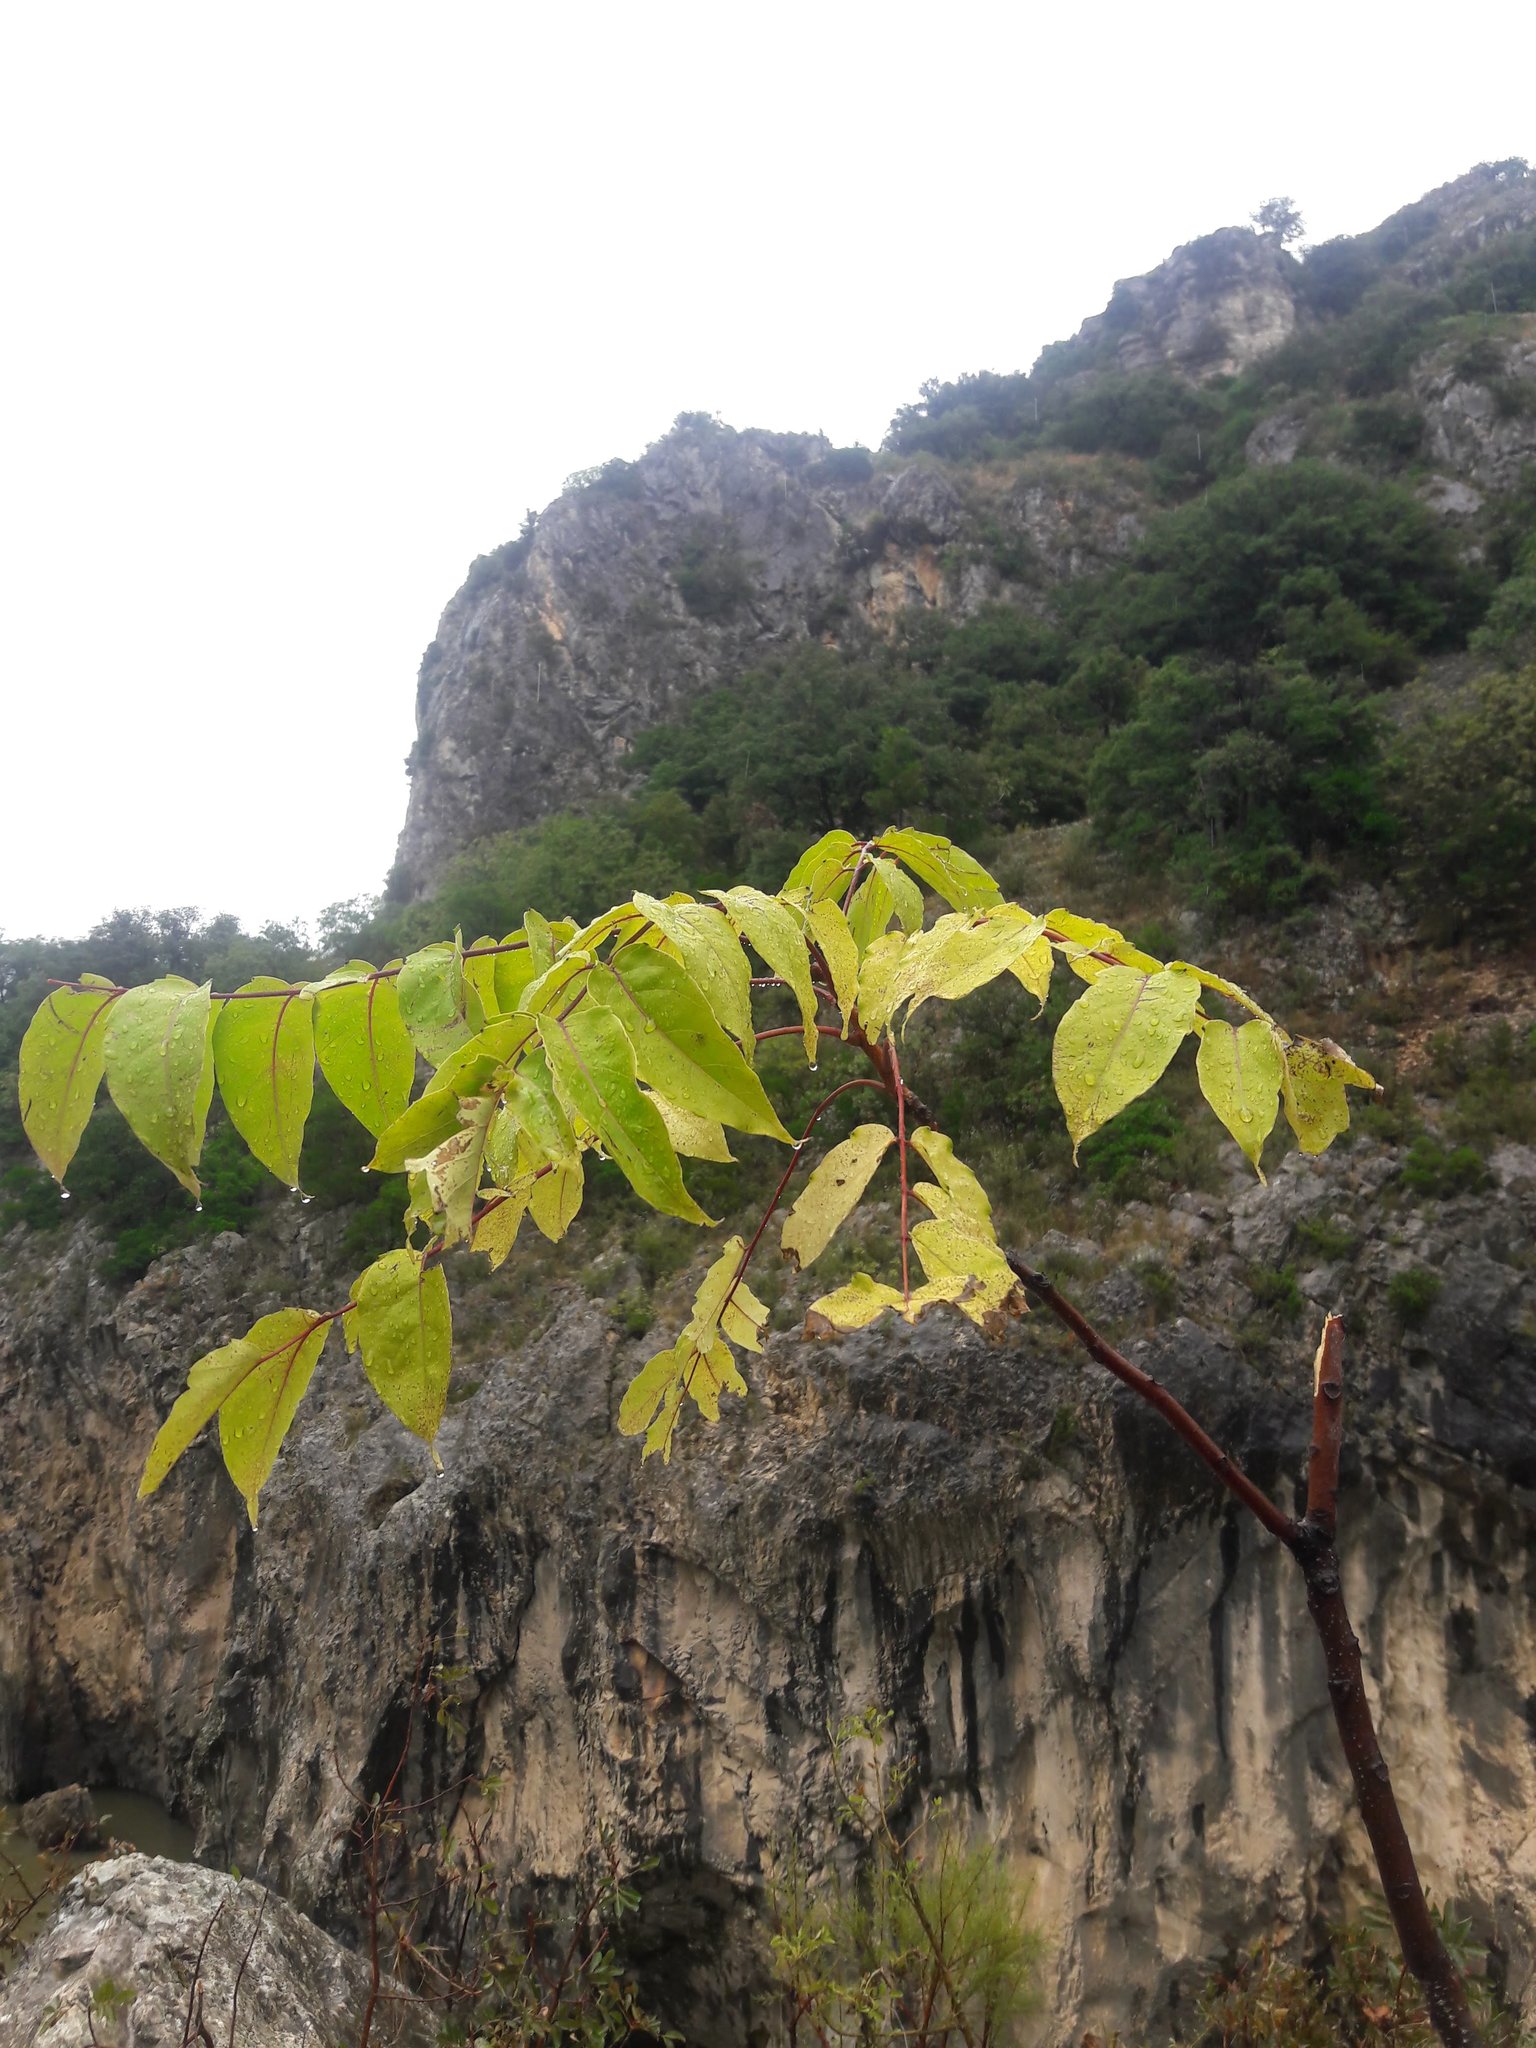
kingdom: Plantae
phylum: Tracheophyta
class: Magnoliopsida
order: Sapindales
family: Simaroubaceae
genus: Ailanthus
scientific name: Ailanthus altissima
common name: Tree-of-heaven
